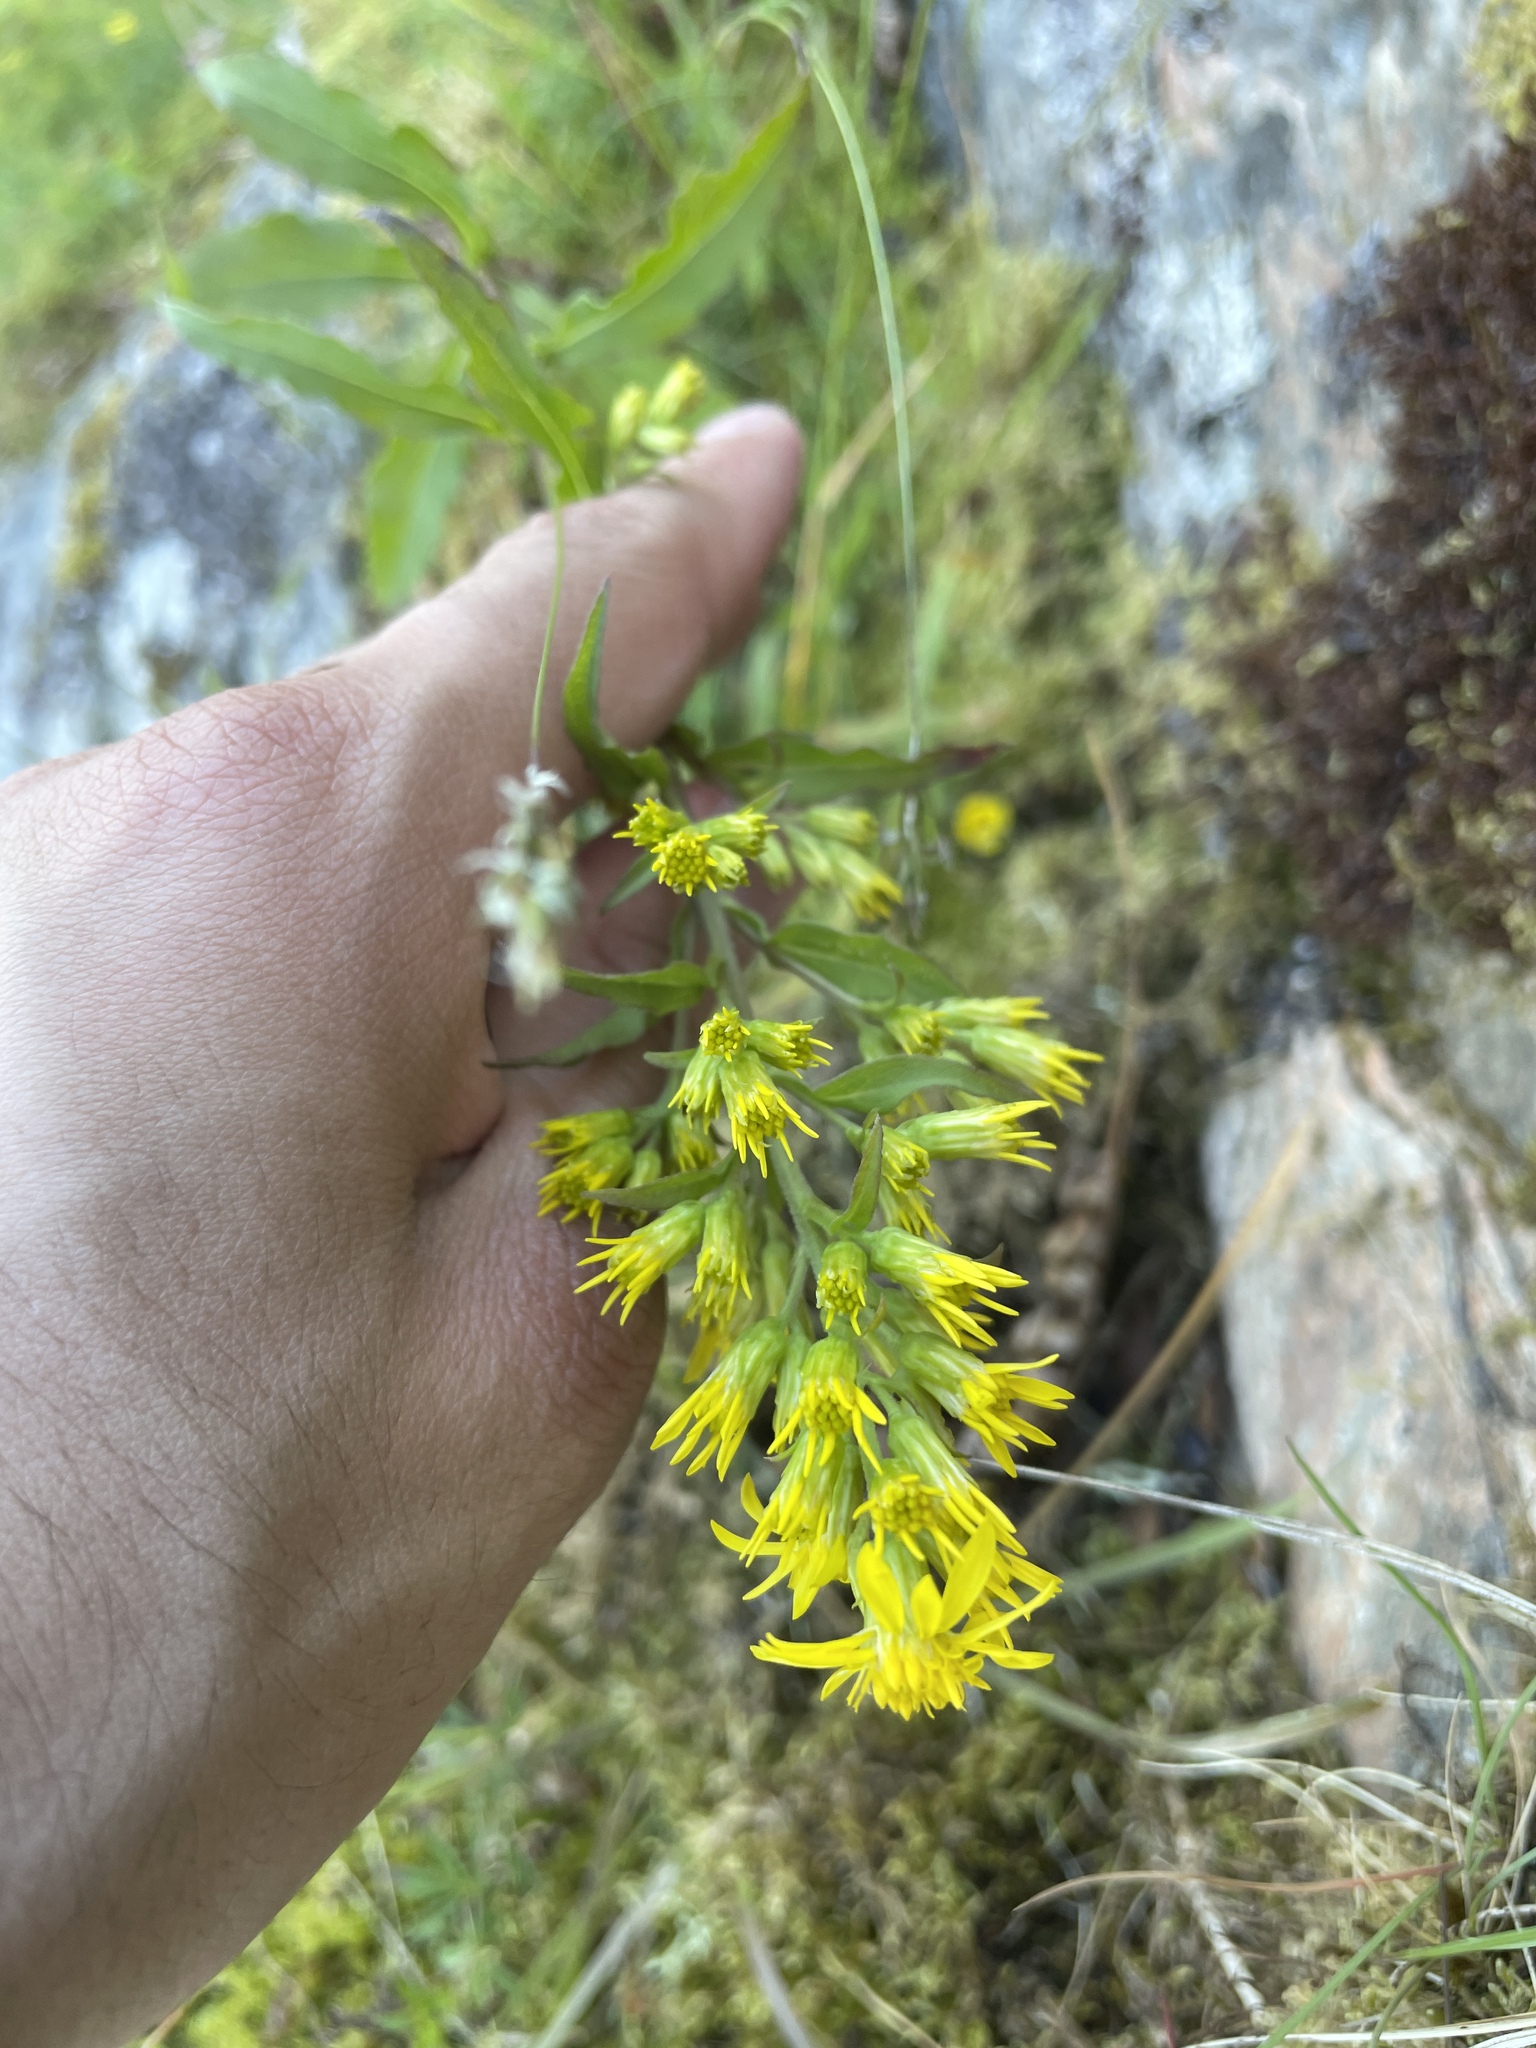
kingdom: Plantae
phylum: Tracheophyta
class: Magnoliopsida
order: Asterales
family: Asteraceae
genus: Solidago
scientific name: Solidago virgaurea
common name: Goldenrod
